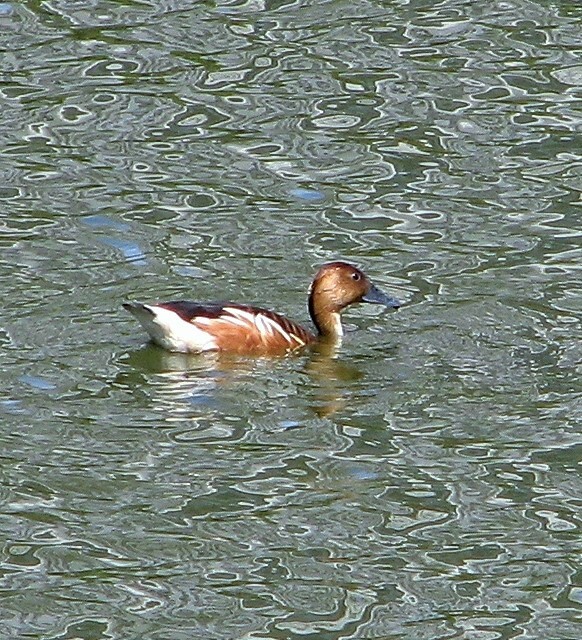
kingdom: Animalia
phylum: Chordata
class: Aves
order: Anseriformes
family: Anatidae
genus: Dendrocygna
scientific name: Dendrocygna bicolor
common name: Fulvous whistling duck
